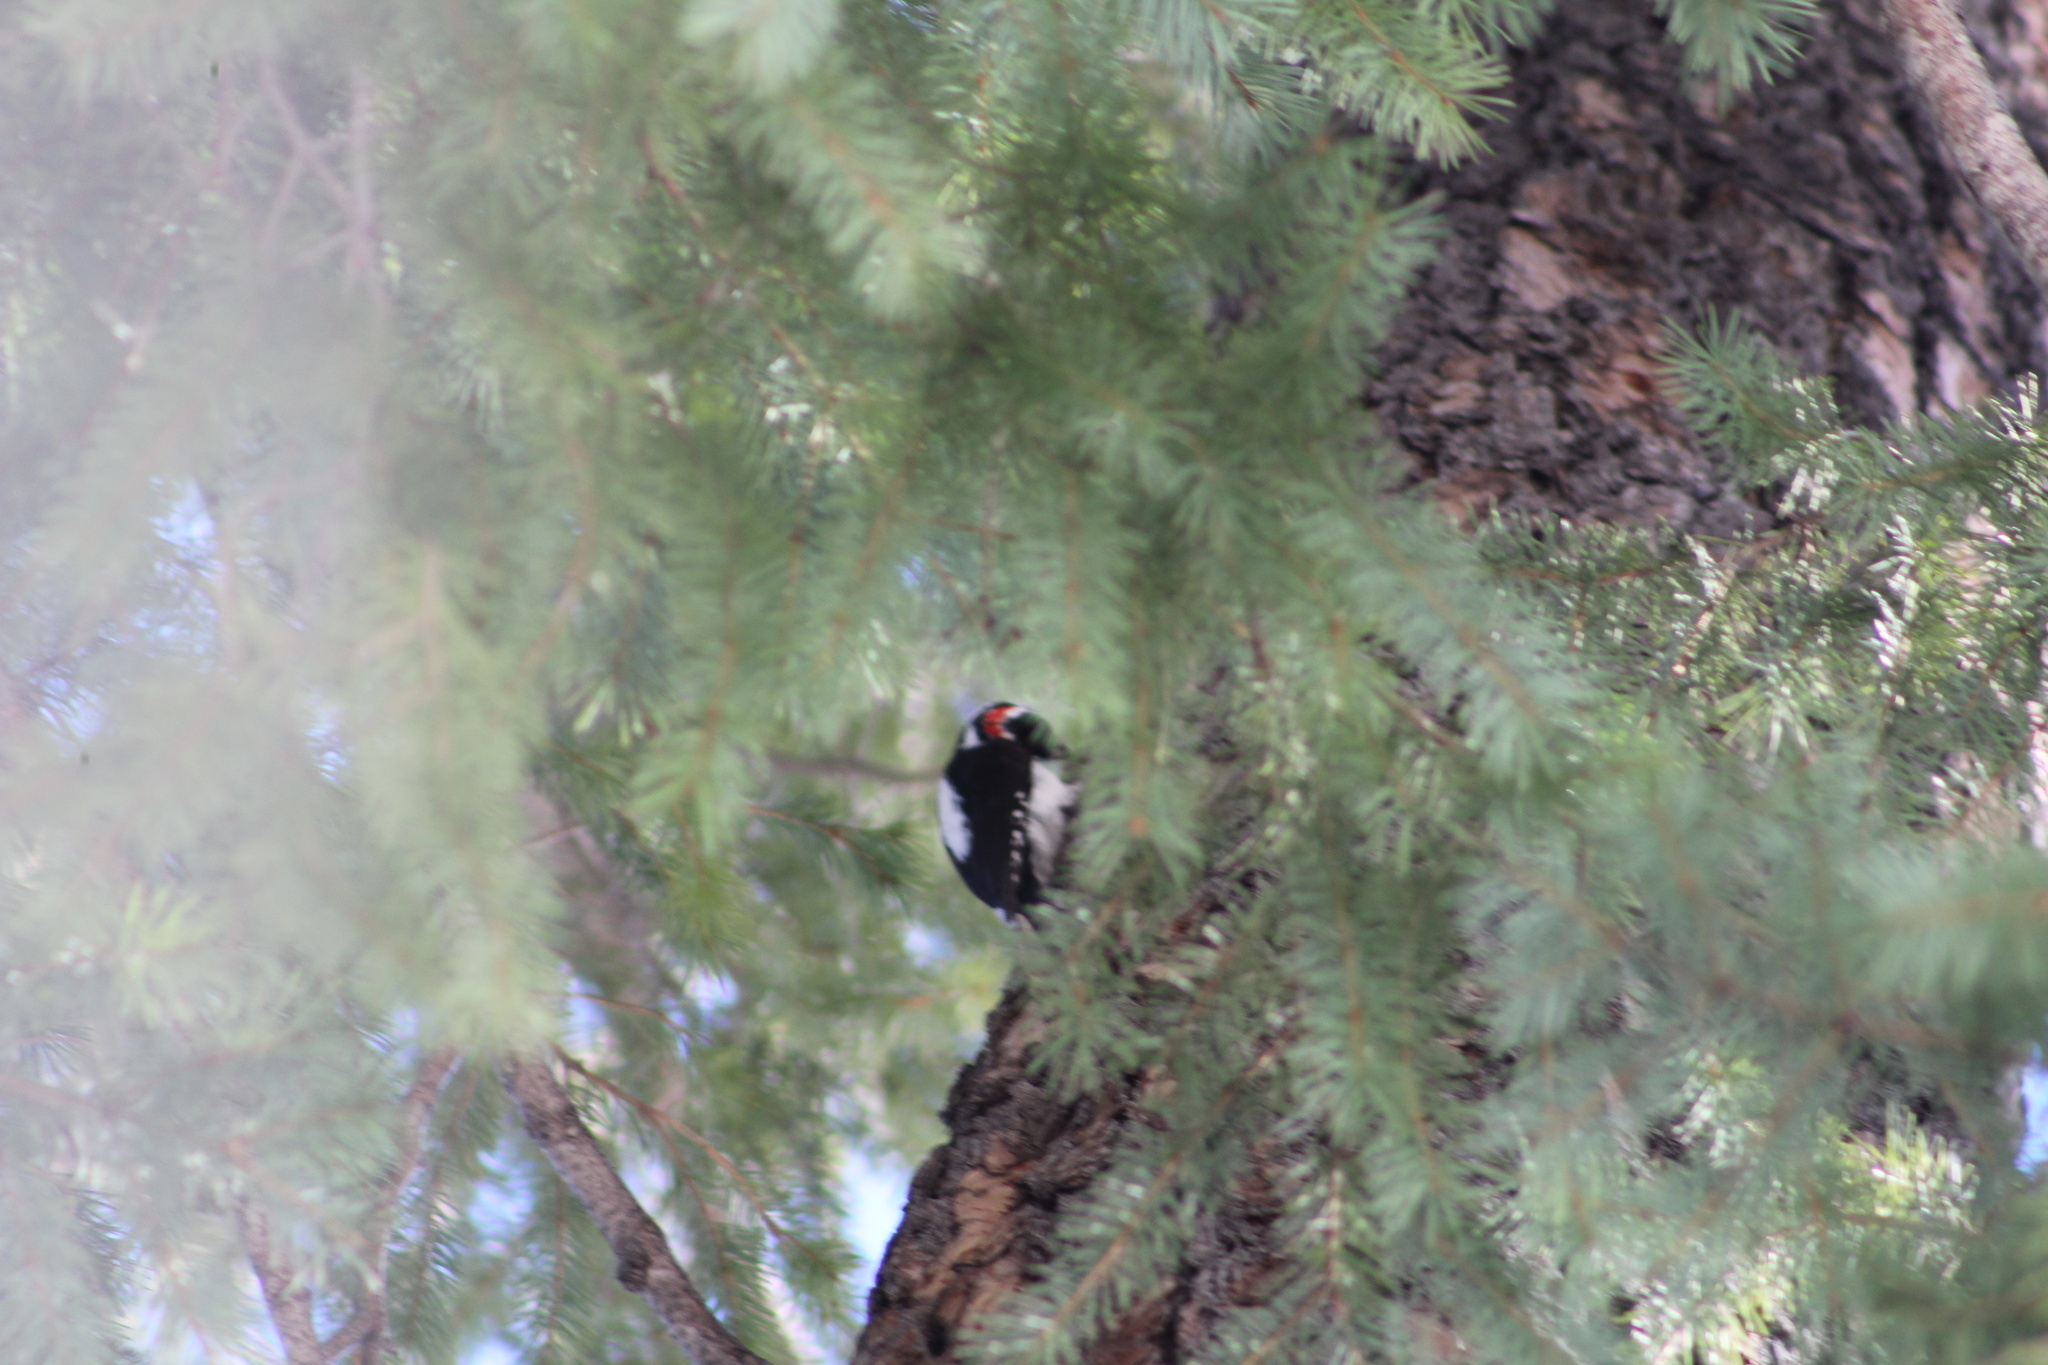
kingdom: Animalia
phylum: Chordata
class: Aves
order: Piciformes
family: Picidae
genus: Leuconotopicus
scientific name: Leuconotopicus villosus
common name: Hairy woodpecker
